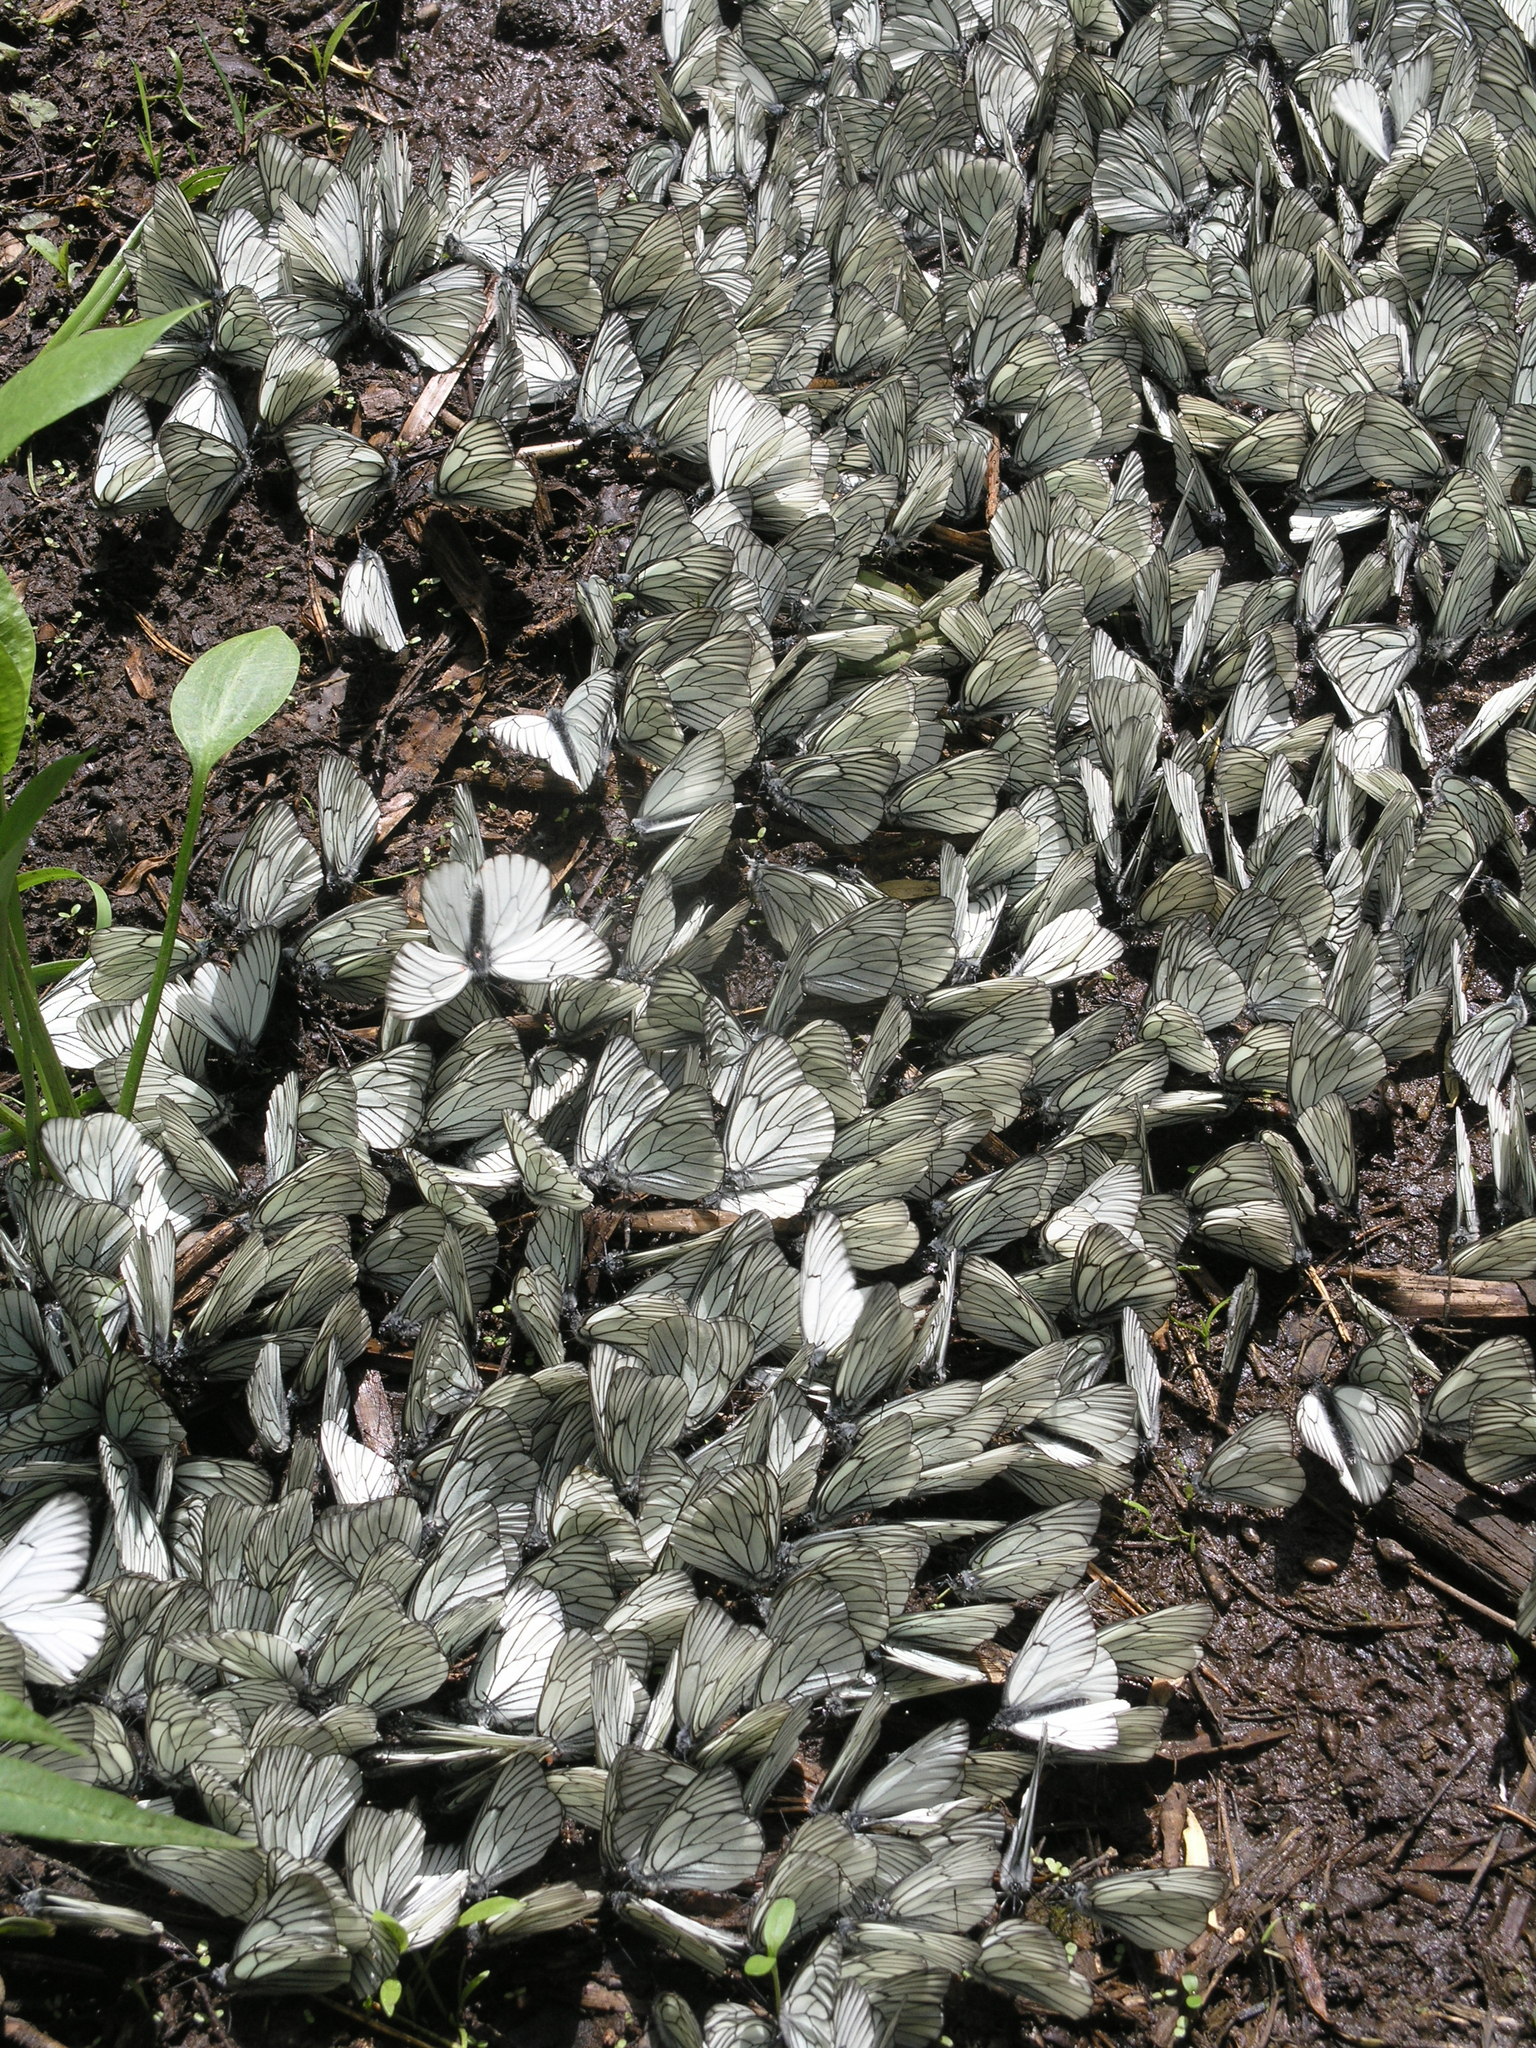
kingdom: Animalia
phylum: Arthropoda
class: Insecta
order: Lepidoptera
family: Pieridae
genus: Aporia
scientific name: Aporia crataegi
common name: Black-veined white
